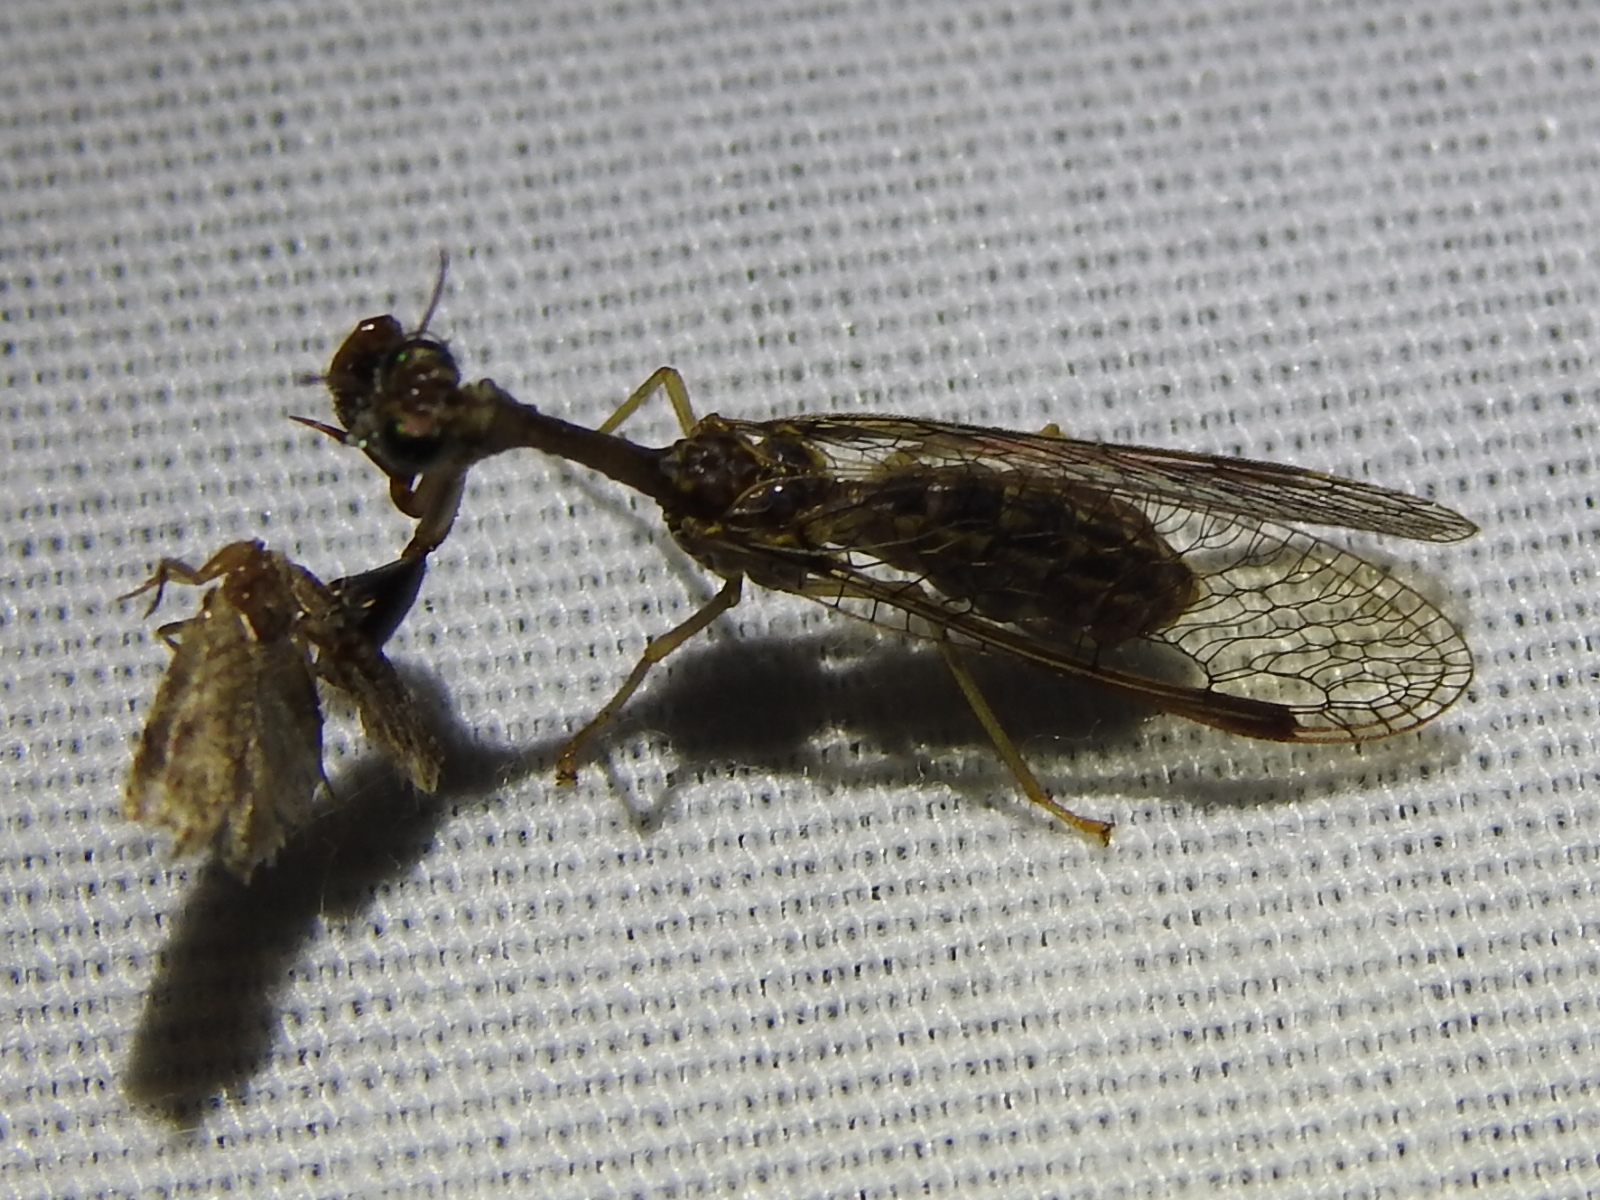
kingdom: Animalia
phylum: Arthropoda
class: Insecta
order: Neuroptera
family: Mantispidae
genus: Dicromantispa
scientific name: Dicromantispa sayi
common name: Say's mantidfly
